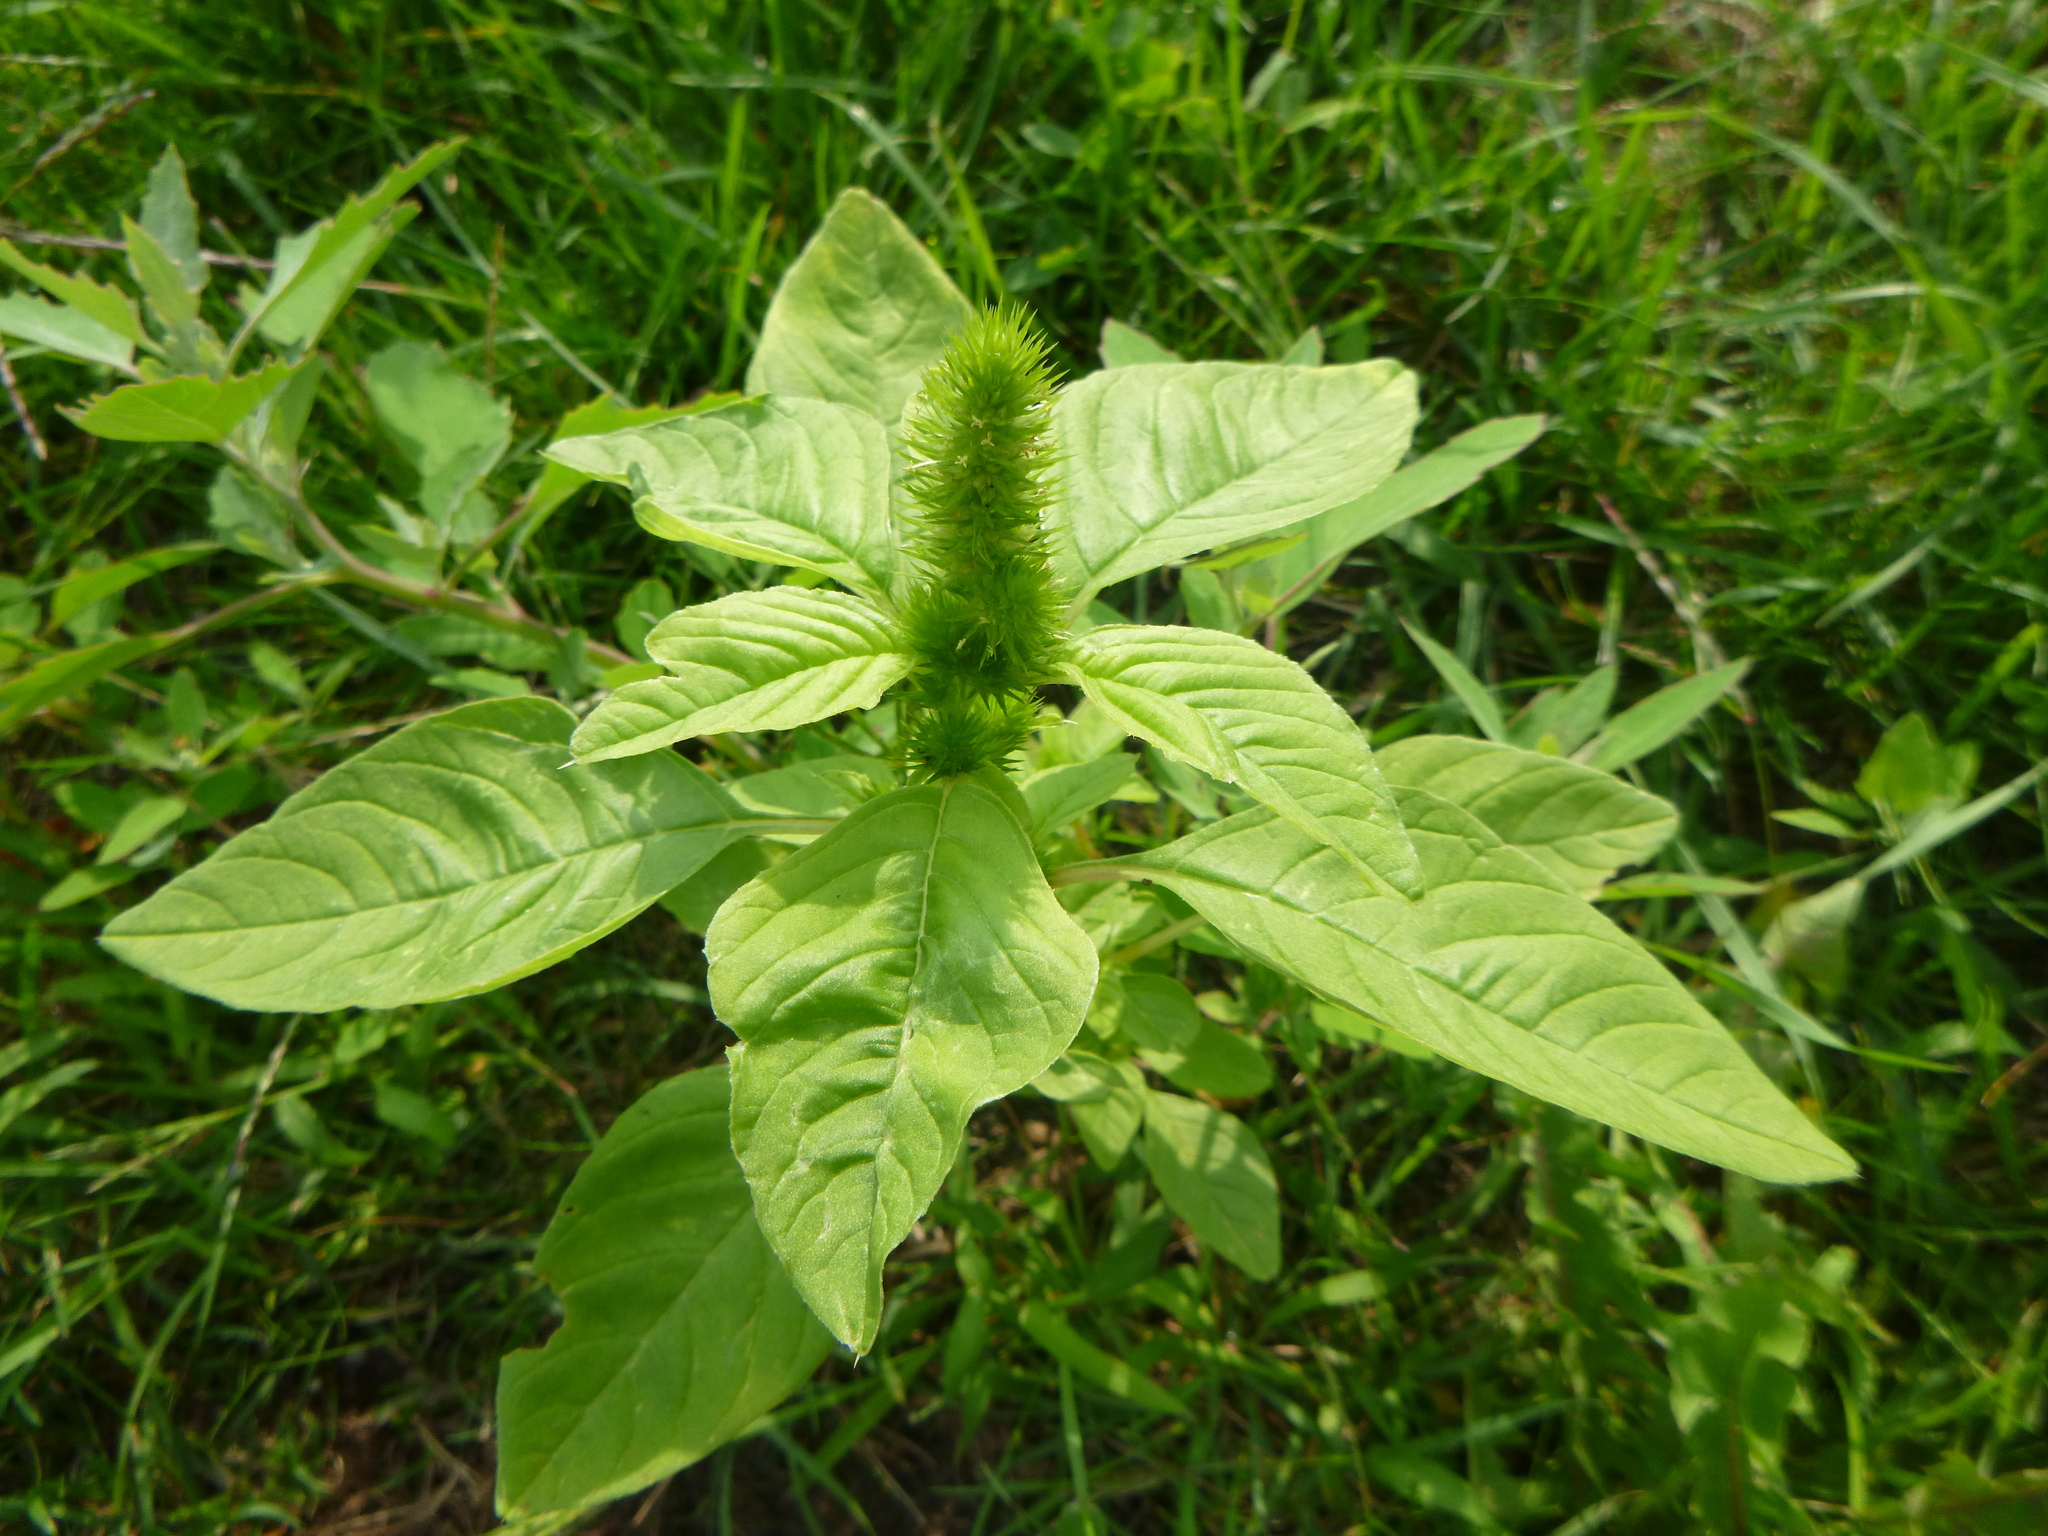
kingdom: Plantae
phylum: Tracheophyta
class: Magnoliopsida
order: Caryophyllales
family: Amaranthaceae
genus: Amaranthus
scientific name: Amaranthus retroflexus
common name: Redroot amaranth
